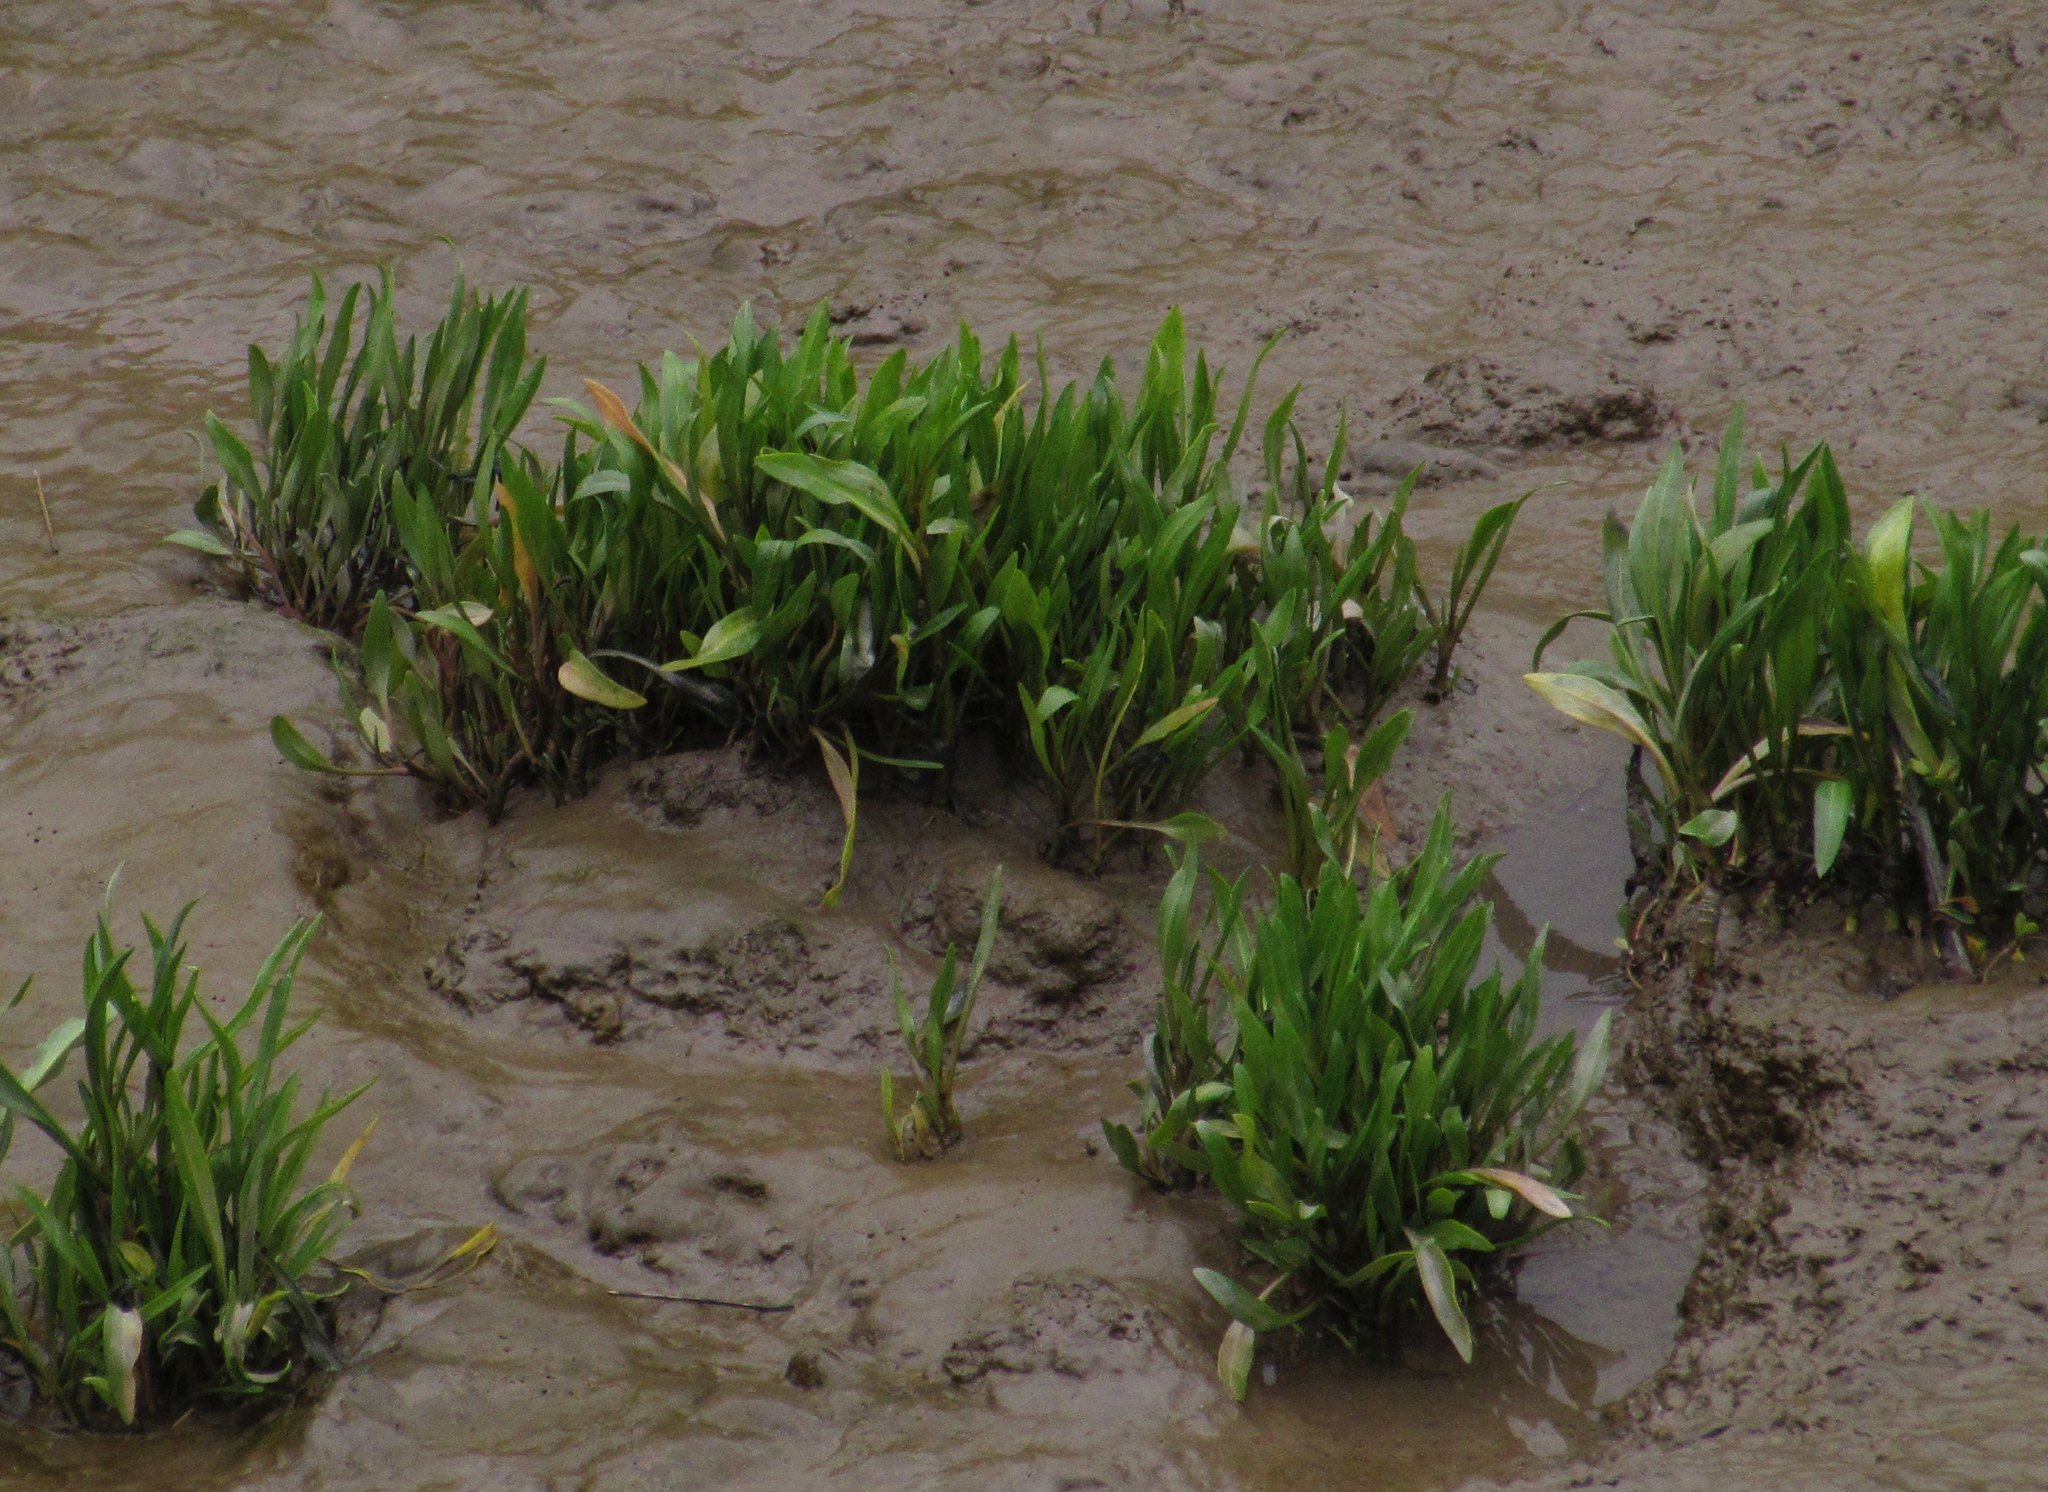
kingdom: Plantae
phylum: Tracheophyta
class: Magnoliopsida
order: Asterales
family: Asteraceae
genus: Tripolium
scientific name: Tripolium pannonicum
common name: Sea aster
